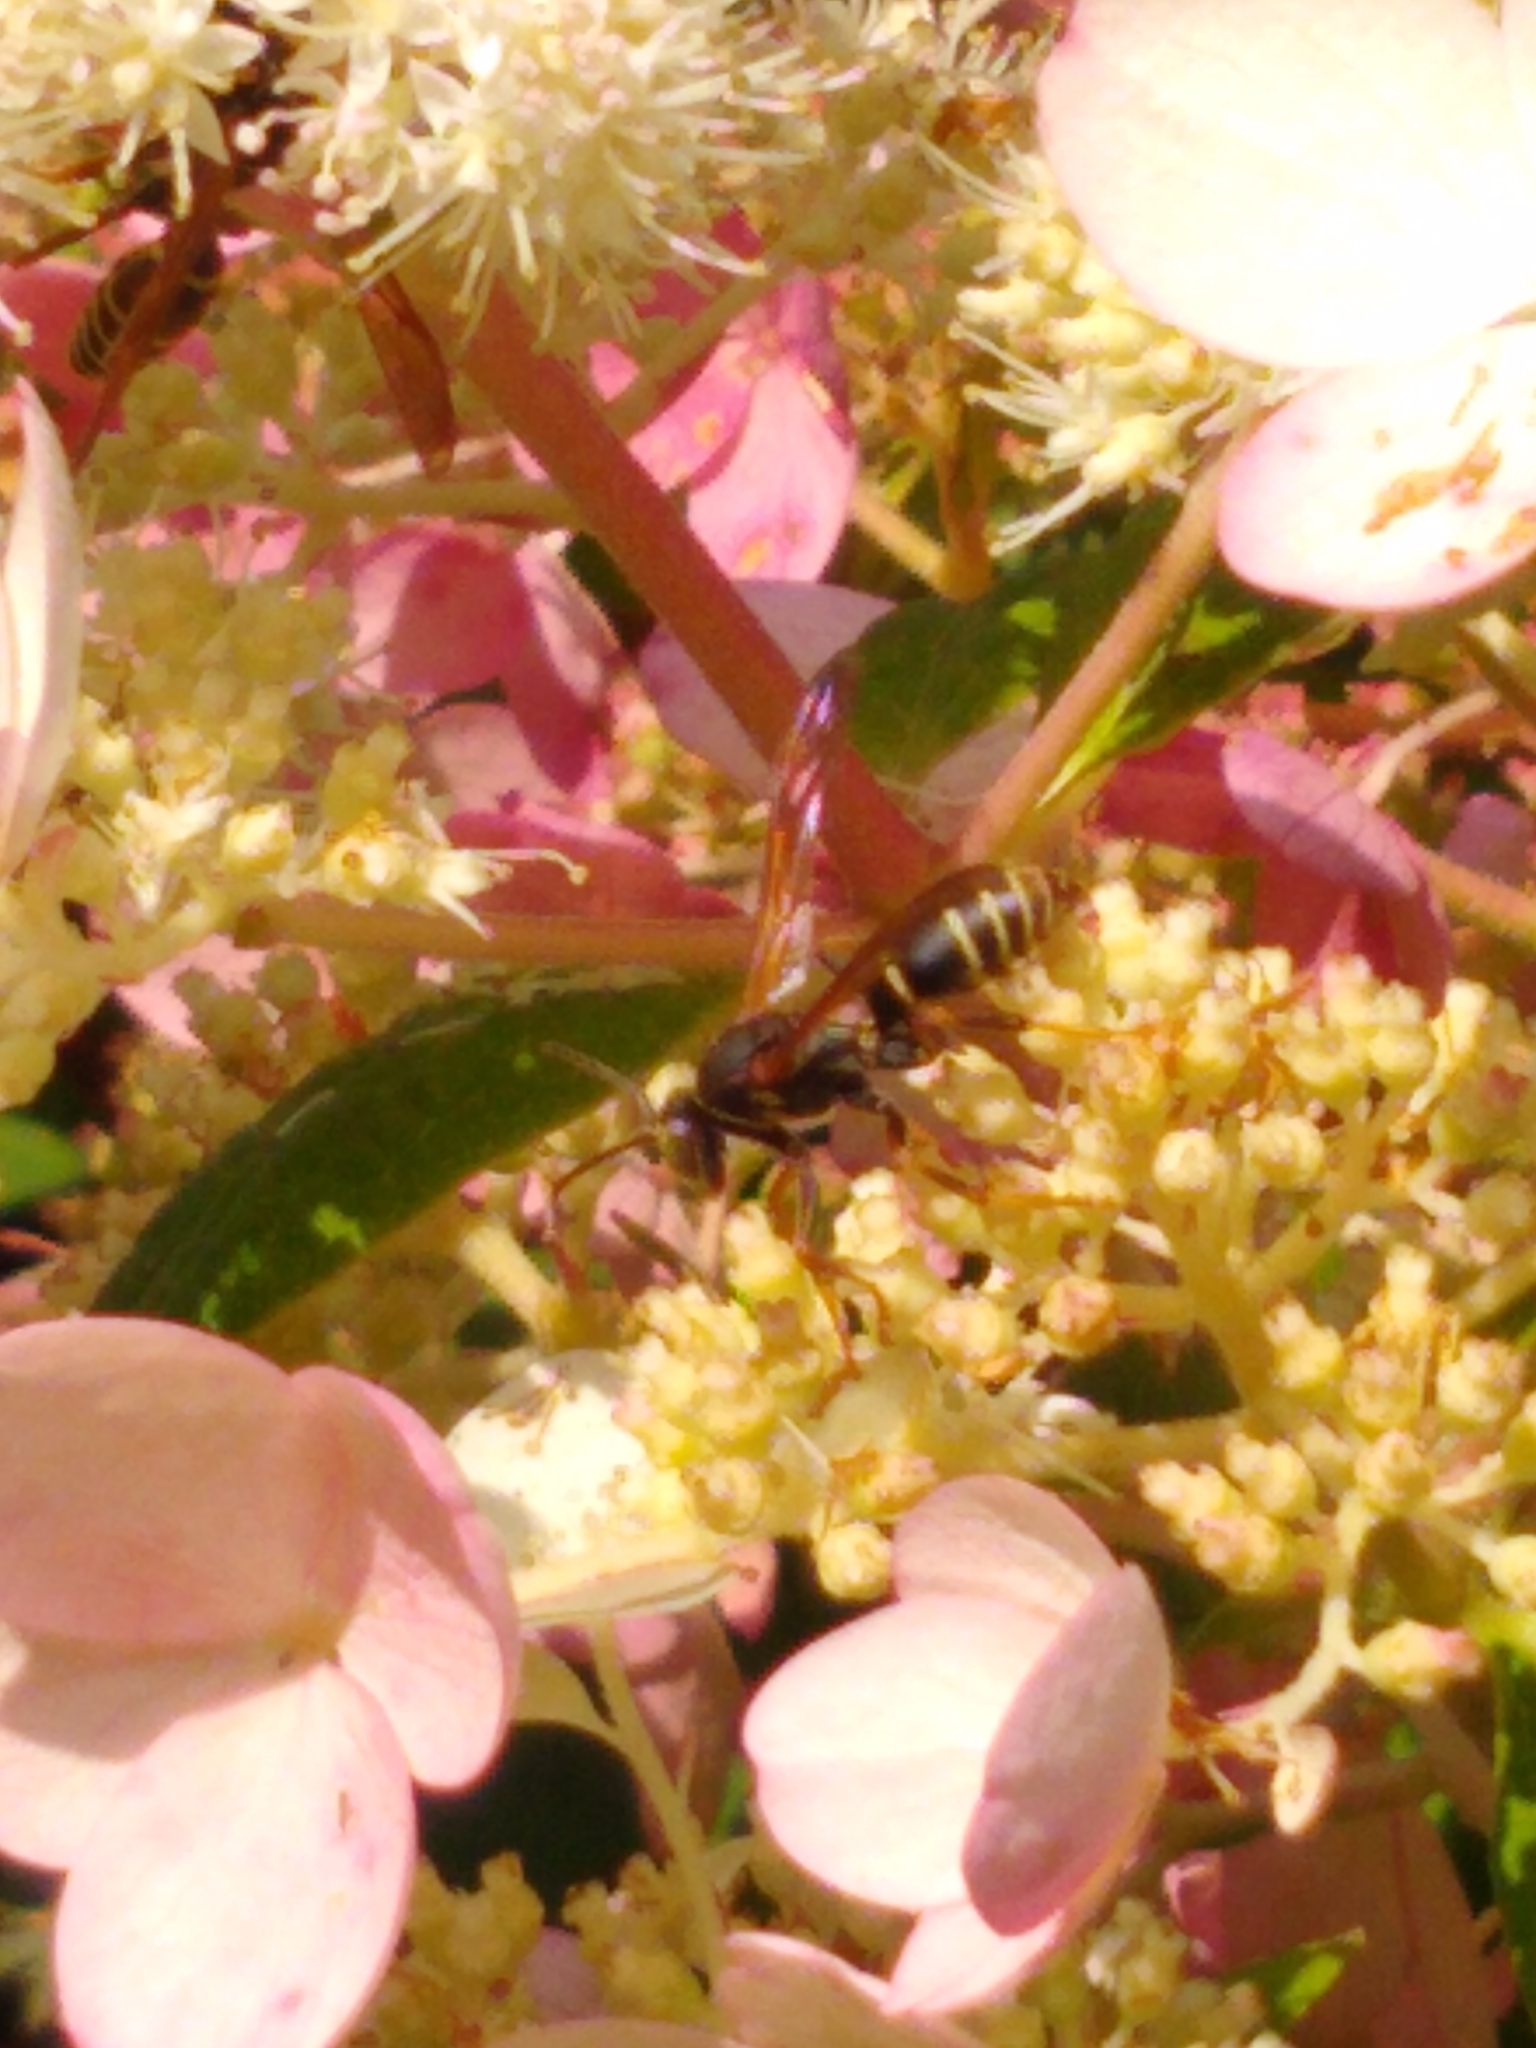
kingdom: Animalia
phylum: Arthropoda
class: Insecta
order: Hymenoptera
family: Eumenidae
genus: Polistes
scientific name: Polistes fuscatus
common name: Dark paper wasp
